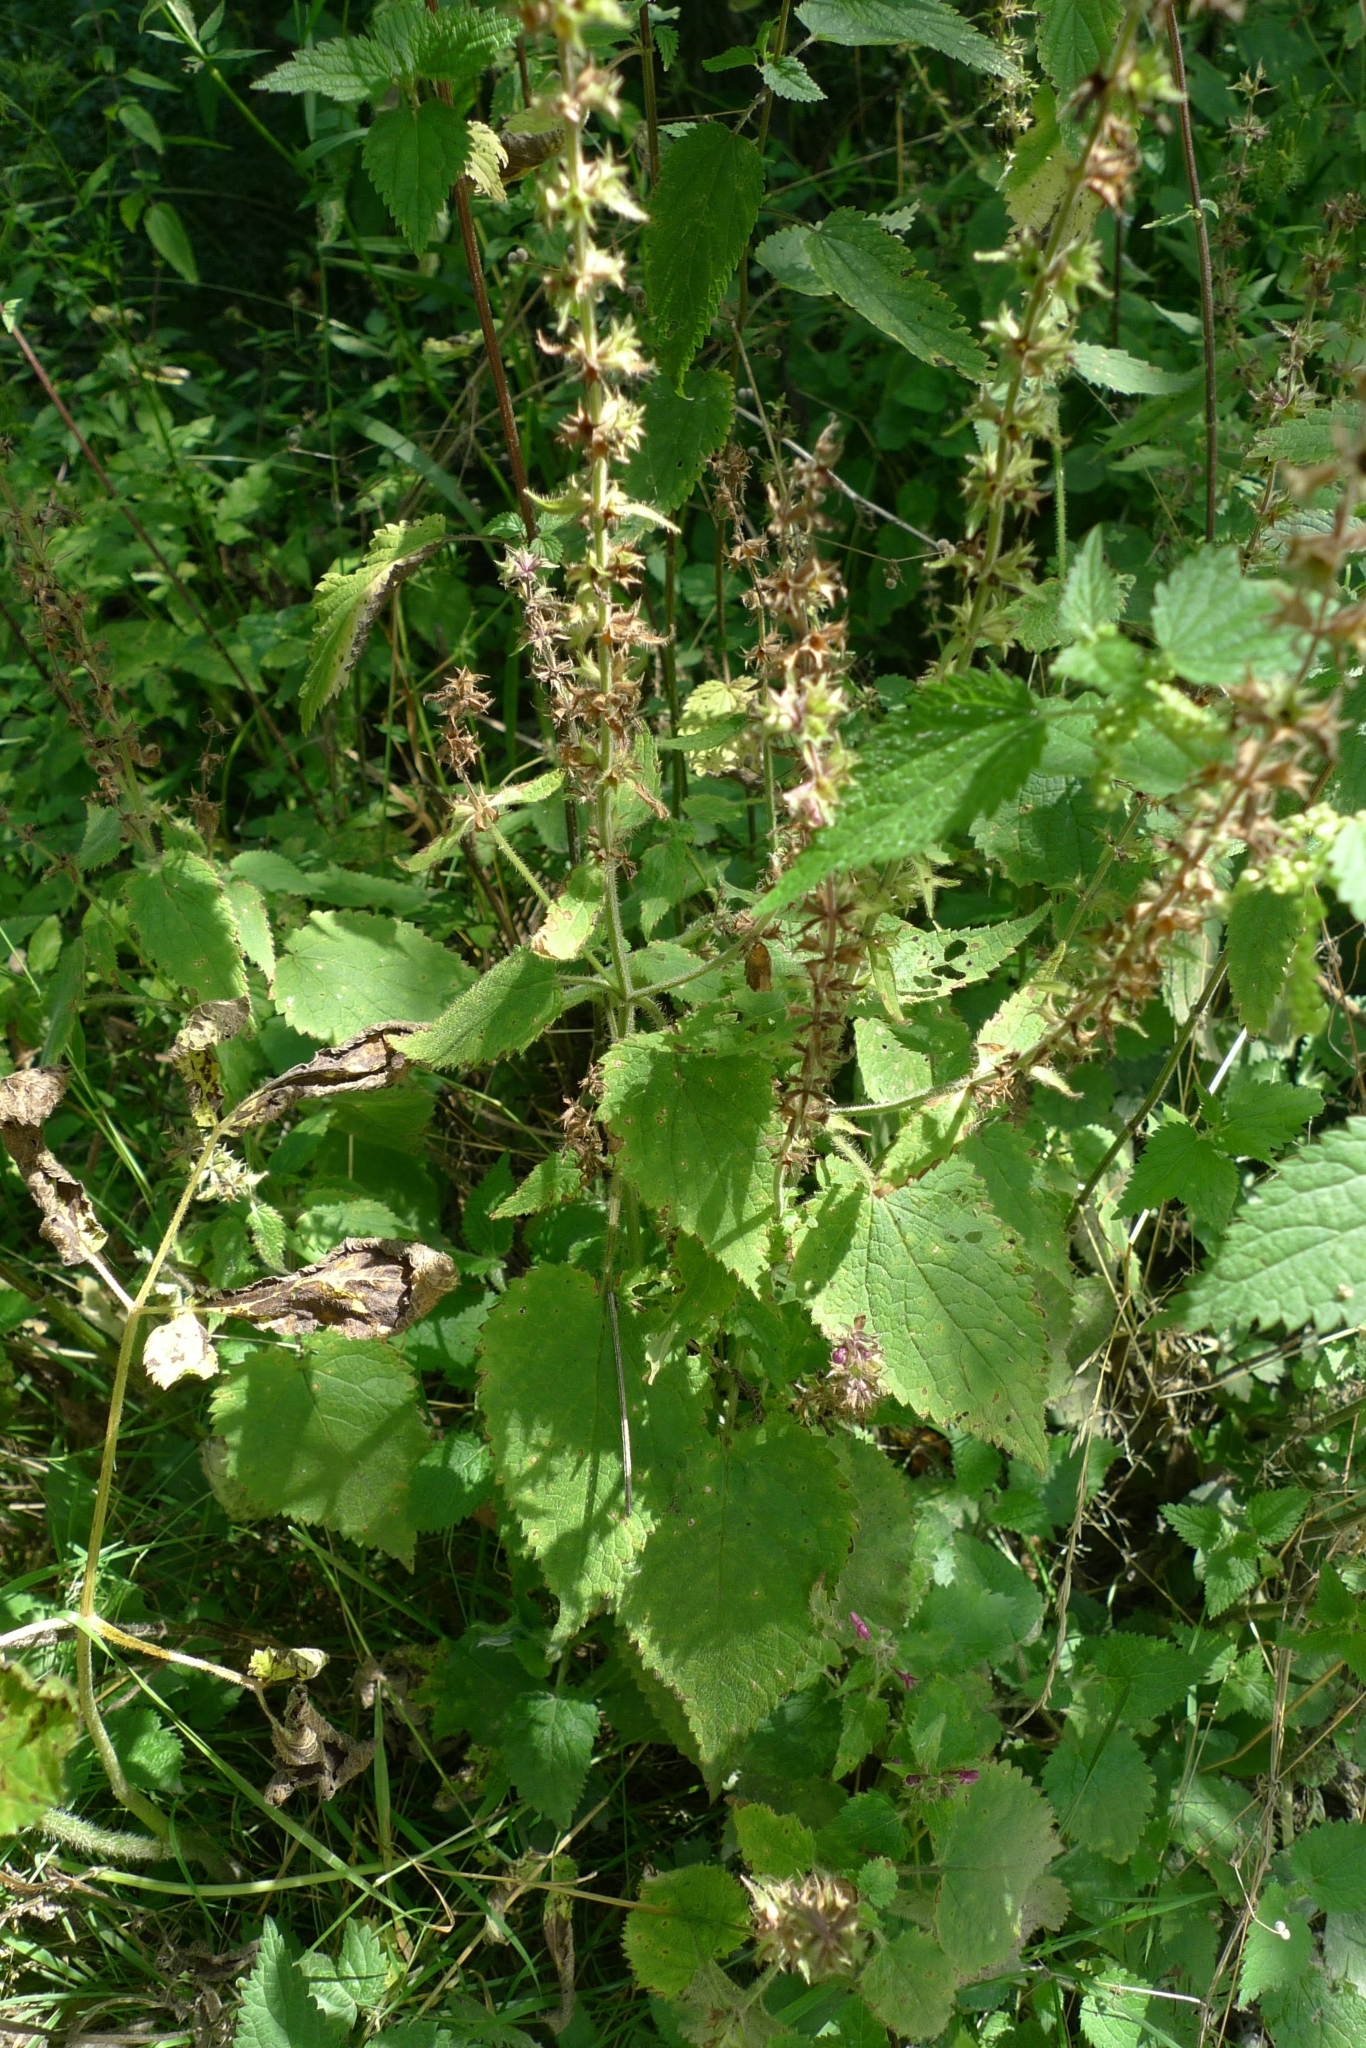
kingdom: Plantae
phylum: Tracheophyta
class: Magnoliopsida
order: Lamiales
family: Lamiaceae
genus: Stachys
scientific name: Stachys sylvatica
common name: Hedge woundwort
